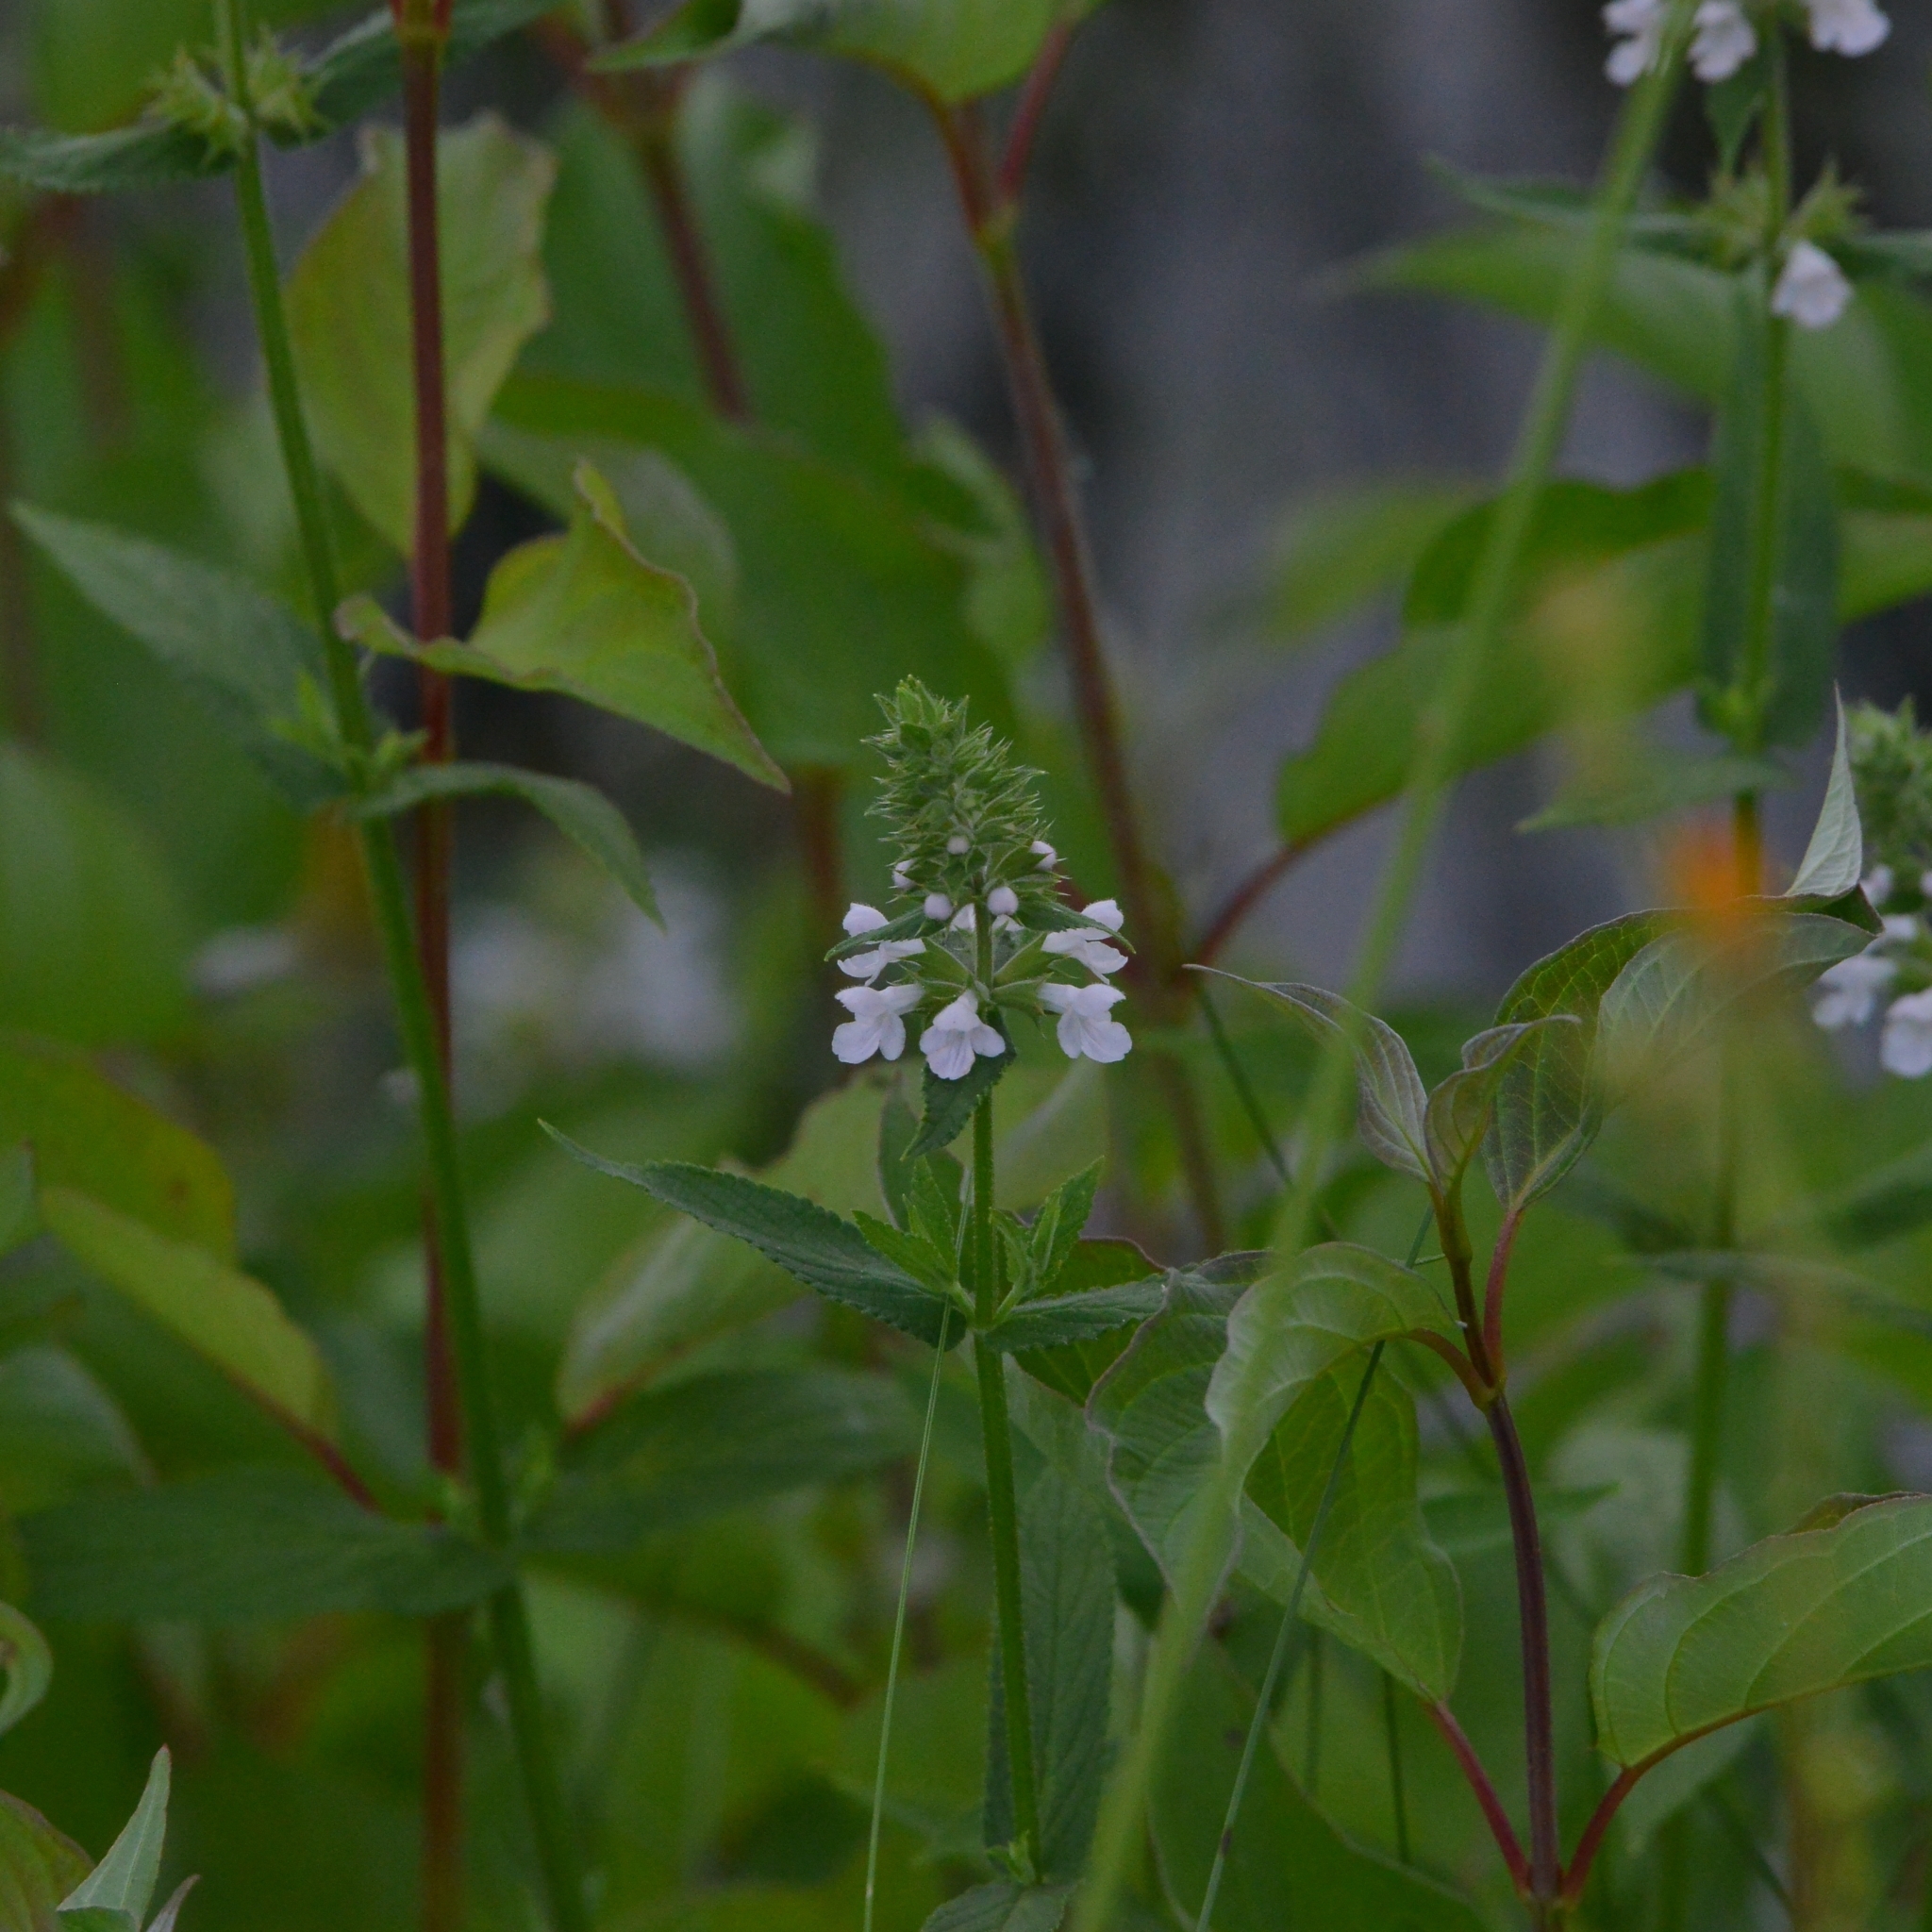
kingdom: Plantae
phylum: Tracheophyta
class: Magnoliopsida
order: Lamiales
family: Lamiaceae
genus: Stachys
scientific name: Stachys palustris
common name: Marsh woundwort
